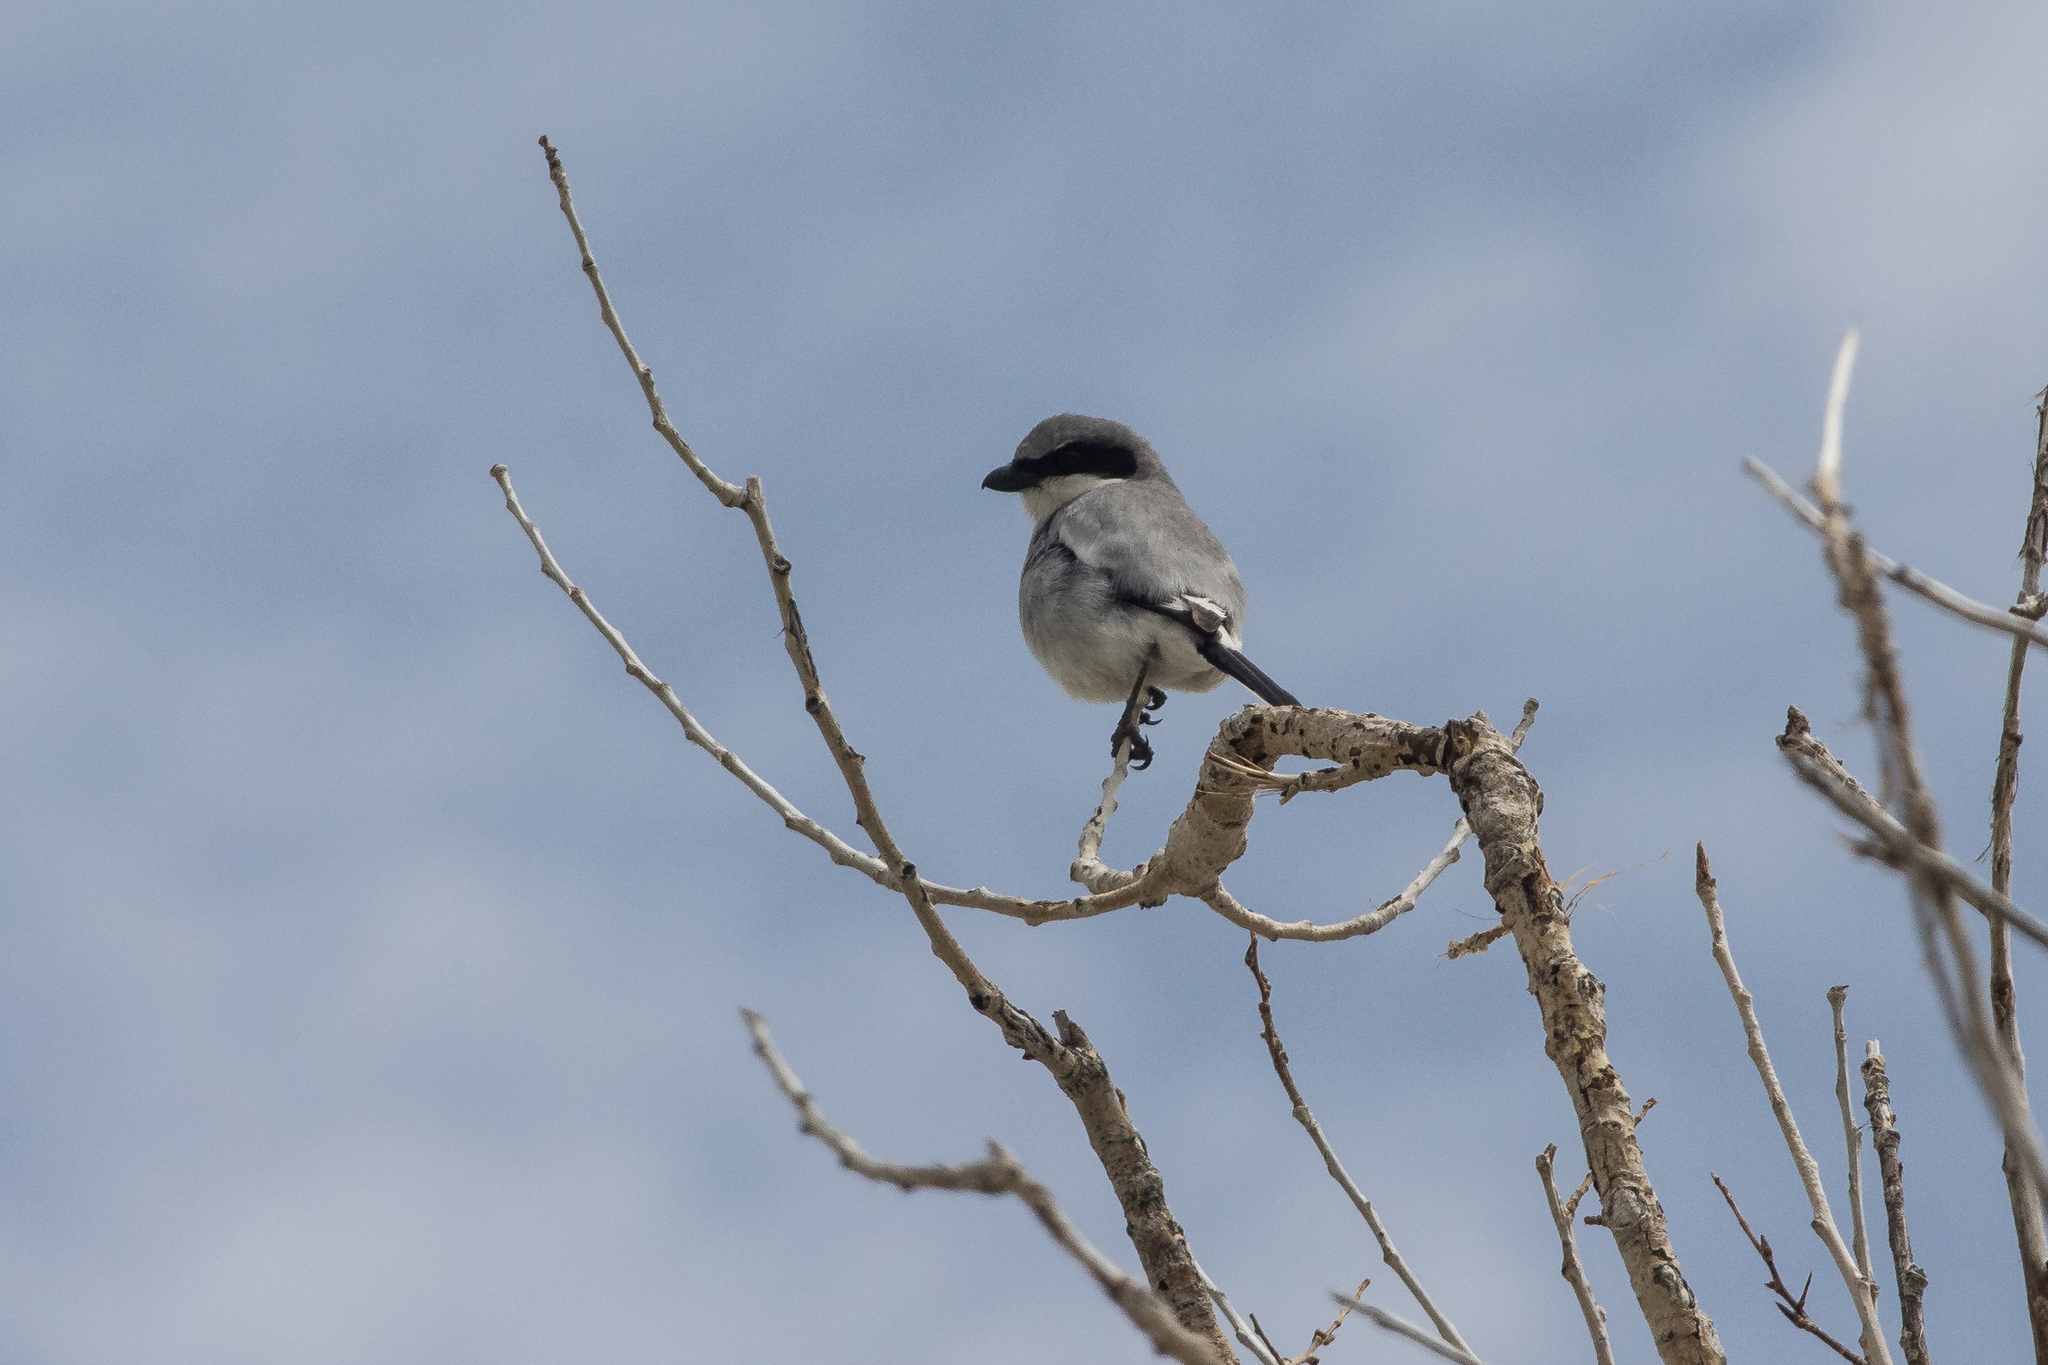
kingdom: Animalia
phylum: Chordata
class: Aves
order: Passeriformes
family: Laniidae
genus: Lanius
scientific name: Lanius ludovicianus
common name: Loggerhead shrike
